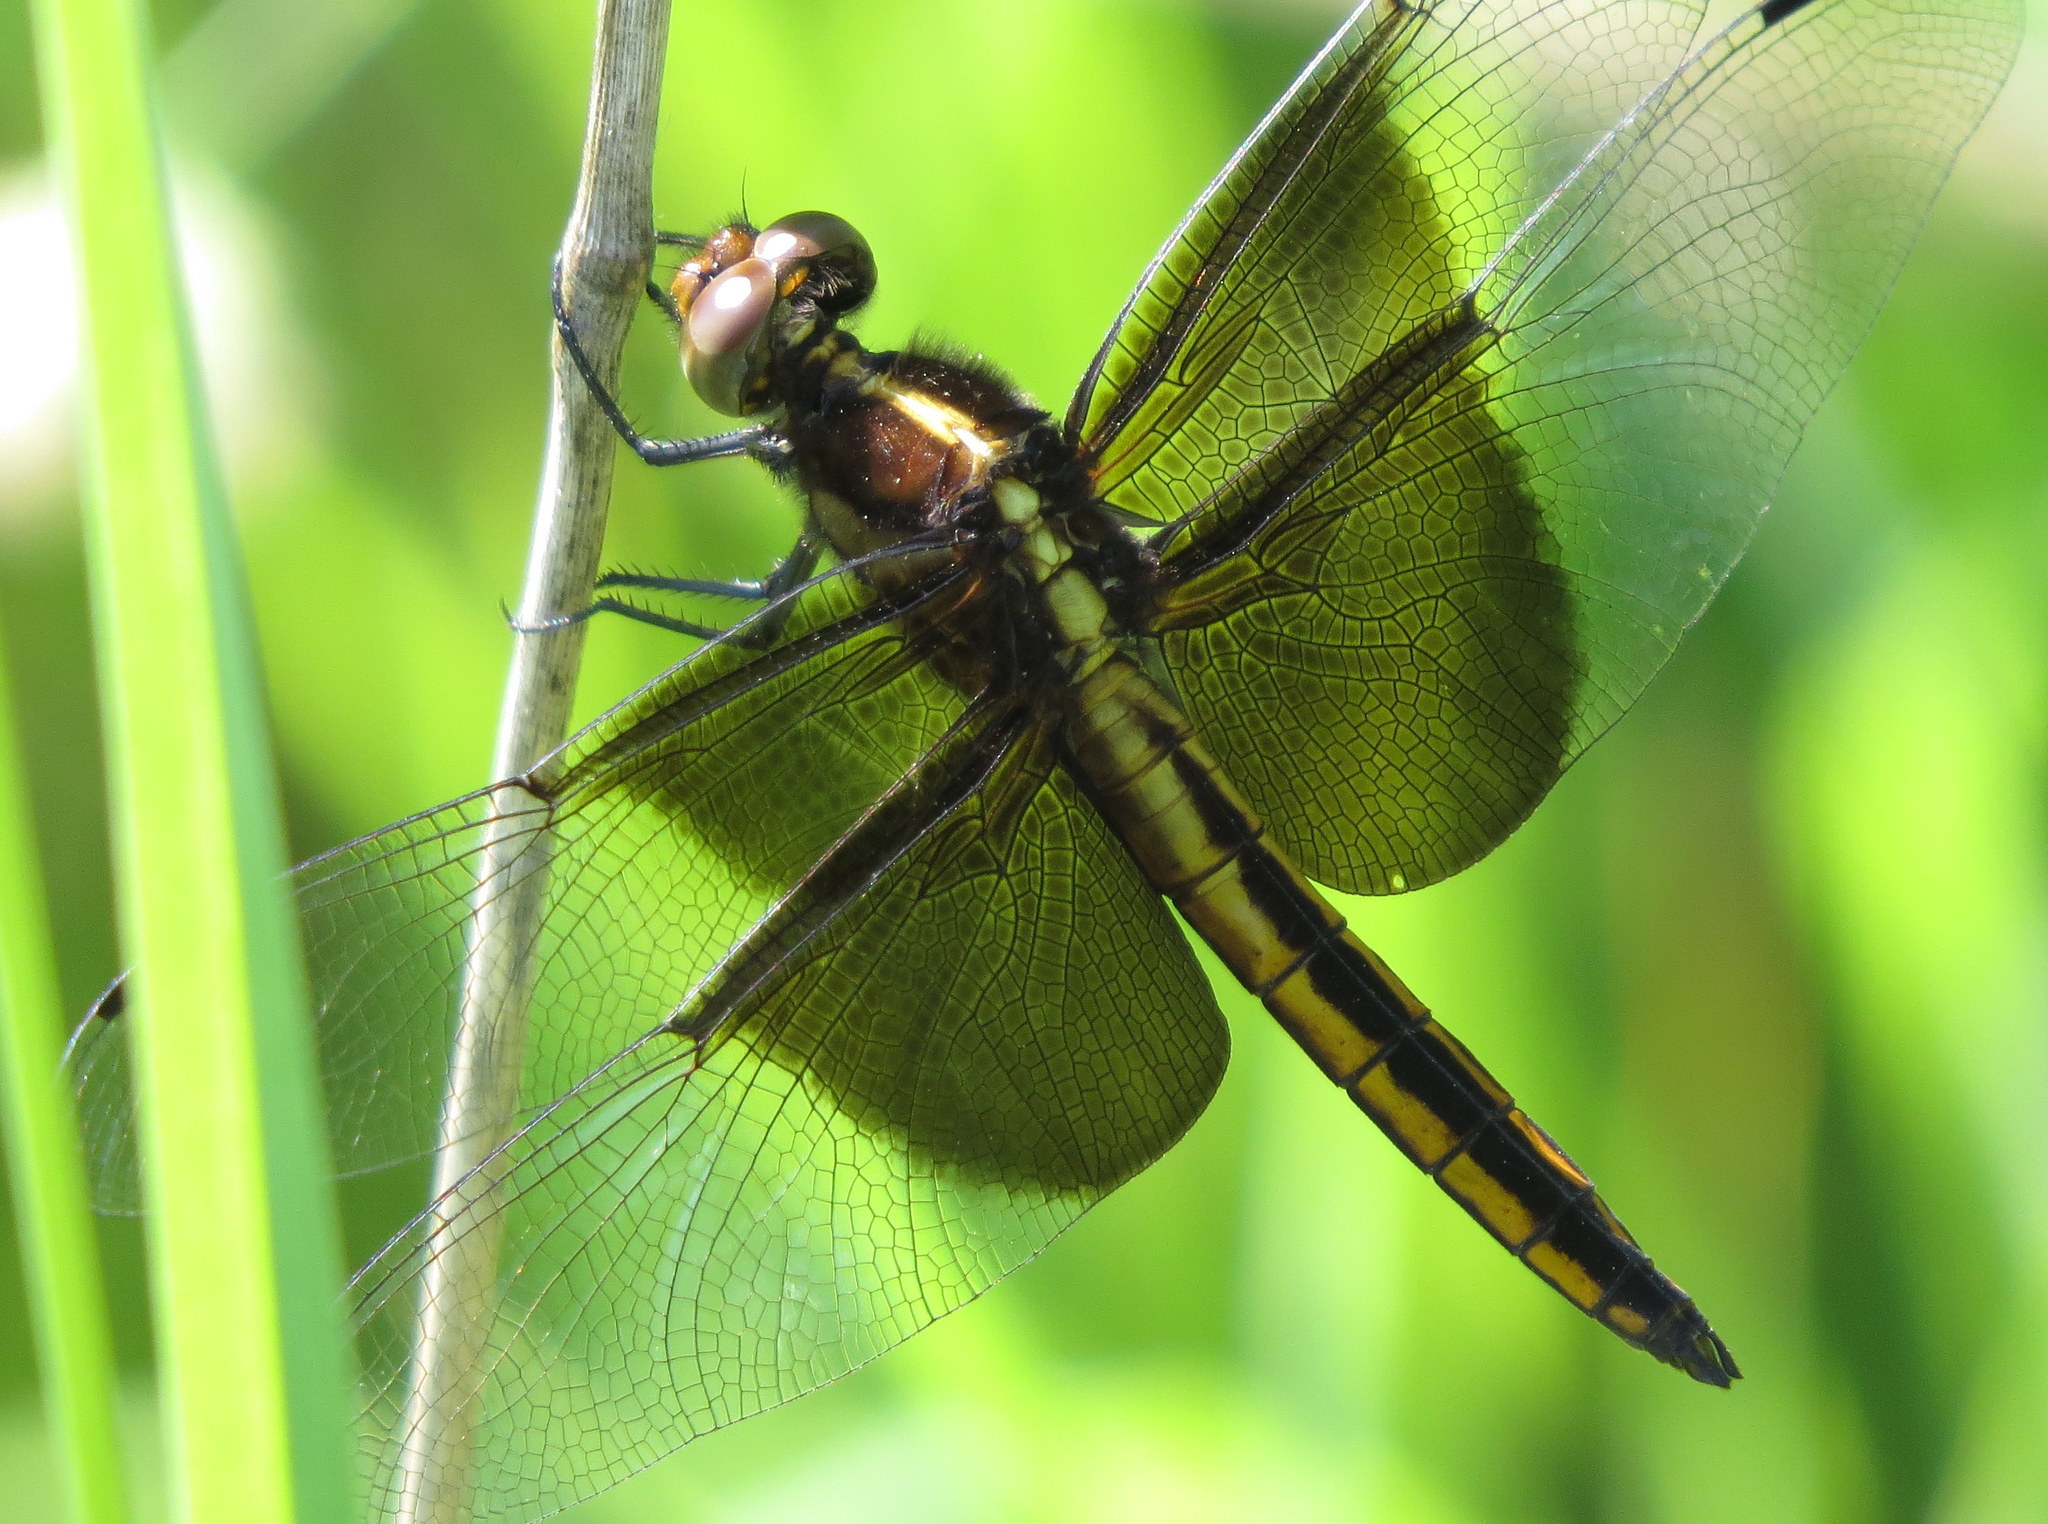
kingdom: Animalia
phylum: Arthropoda
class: Insecta
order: Odonata
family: Libellulidae
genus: Libellula
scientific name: Libellula luctuosa
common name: Widow skimmer
